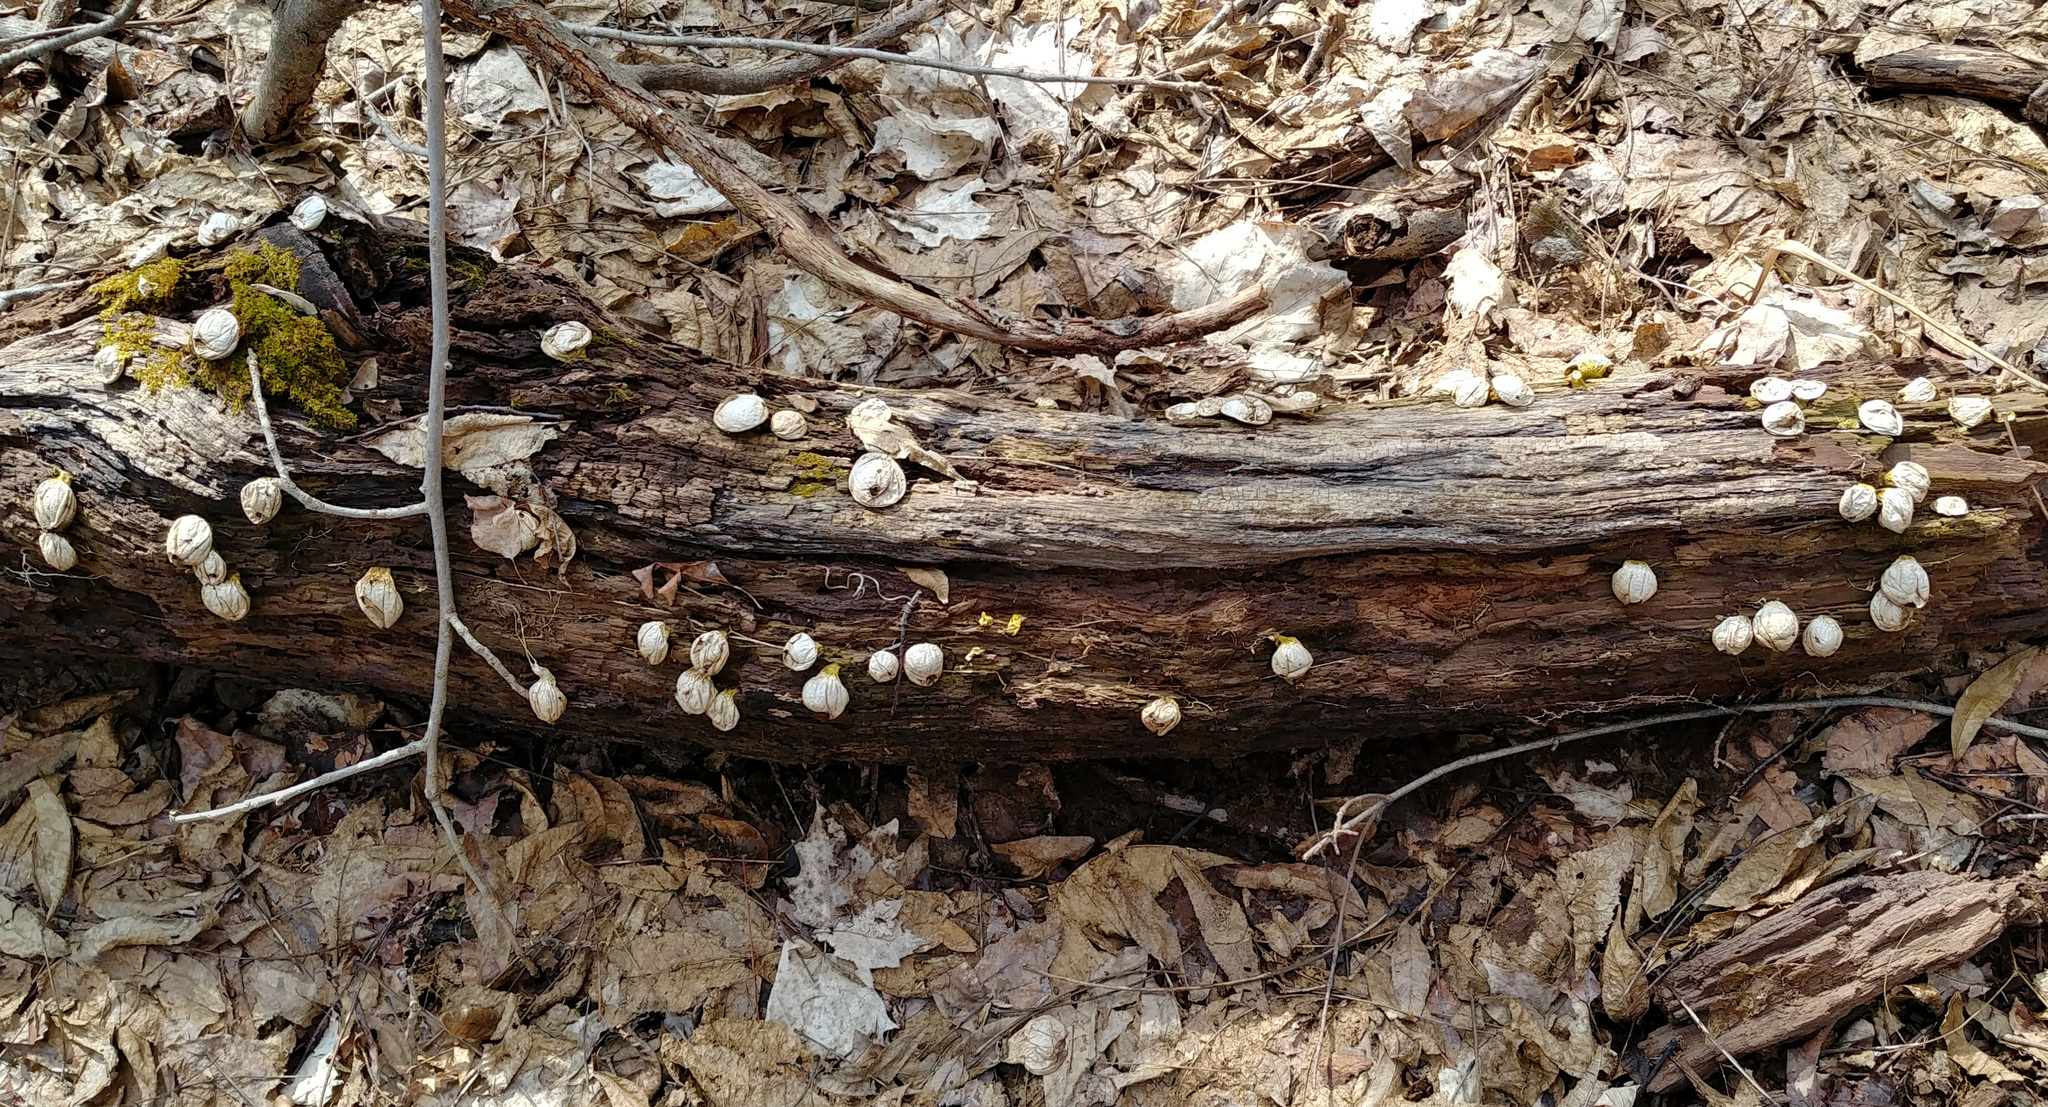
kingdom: Fungi
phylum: Basidiomycota
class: Agaricomycetes
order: Agaricales
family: Lycoperdaceae
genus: Apioperdon
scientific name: Apioperdon pyriforme
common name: Pear-shaped puffball
